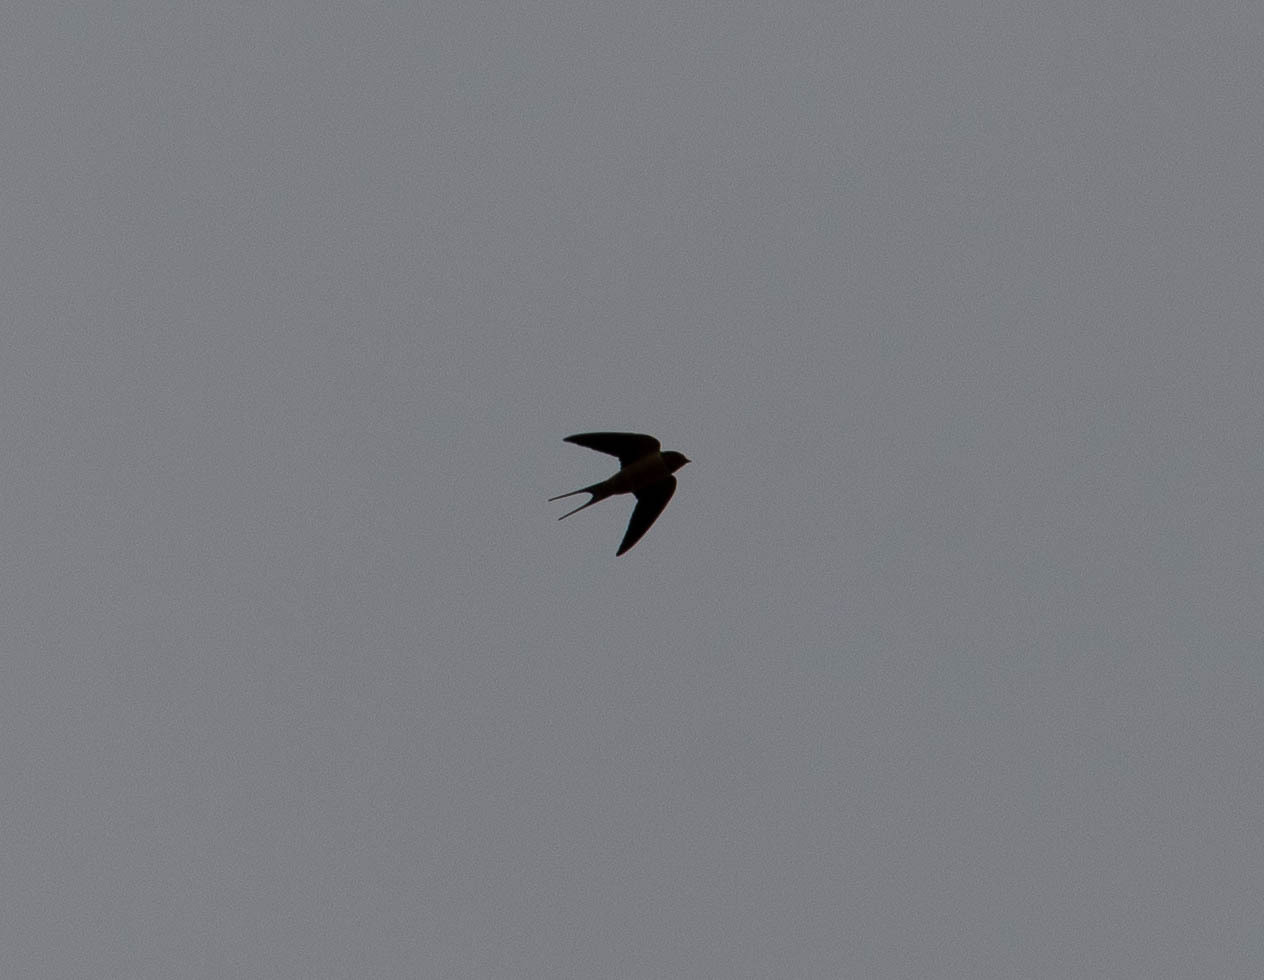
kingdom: Animalia
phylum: Chordata
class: Aves
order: Passeriformes
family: Hirundinidae
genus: Hirundo
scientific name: Hirundo rustica
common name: Barn swallow
